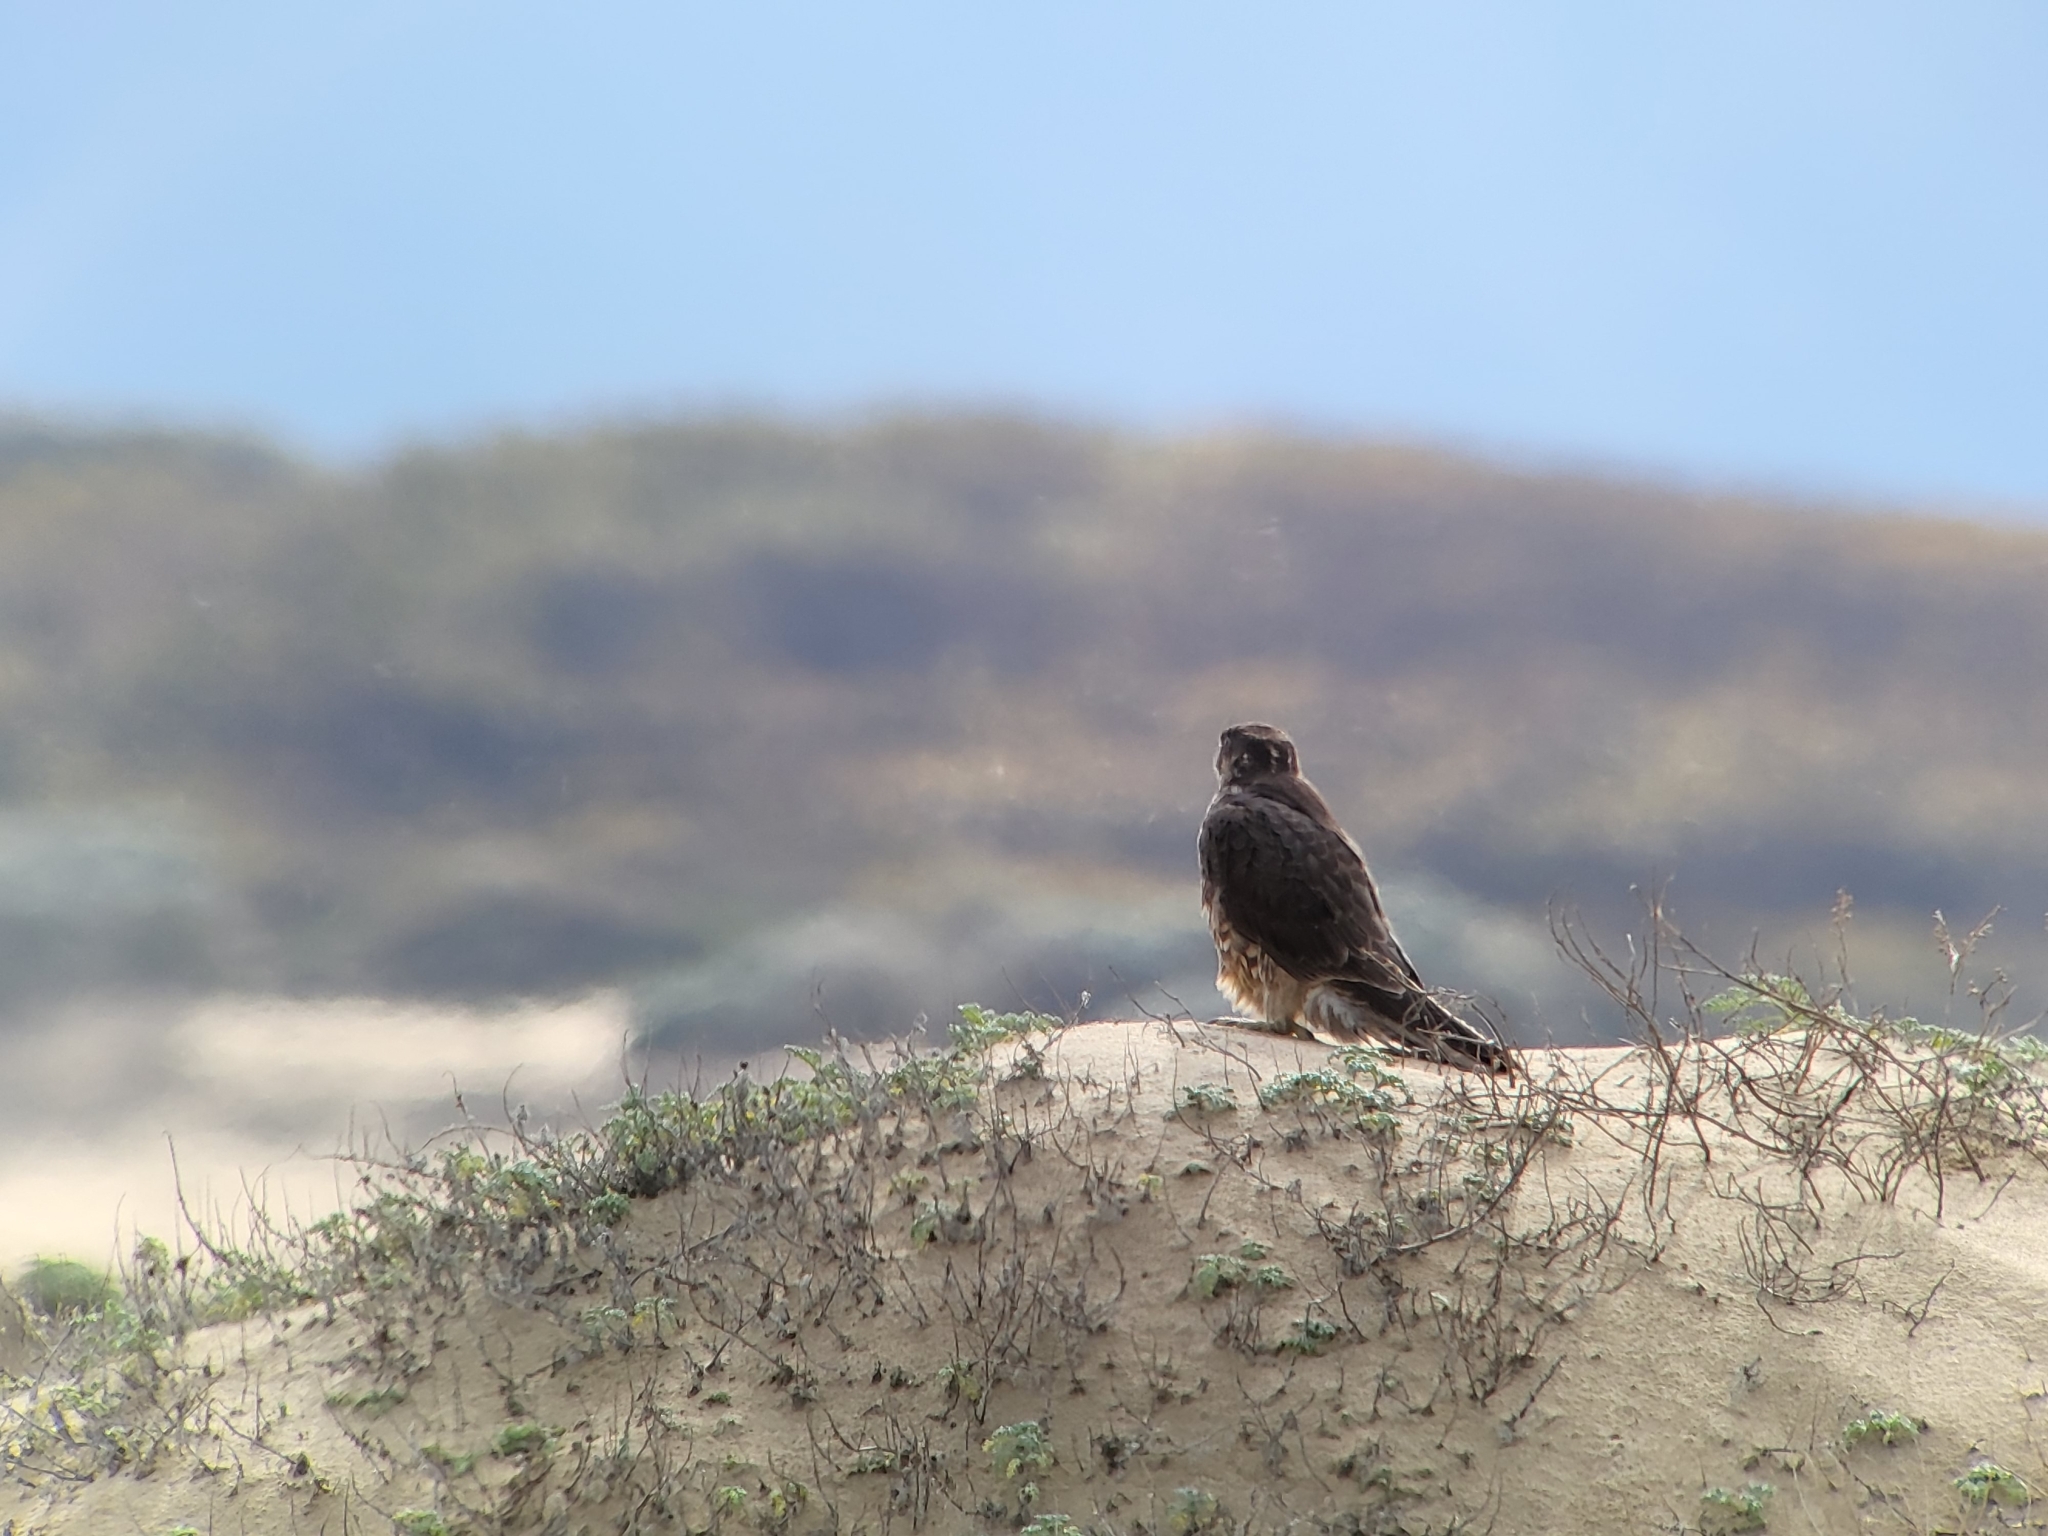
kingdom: Animalia
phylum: Chordata
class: Aves
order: Falconiformes
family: Falconidae
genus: Falco
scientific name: Falco peregrinus
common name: Peregrine falcon
